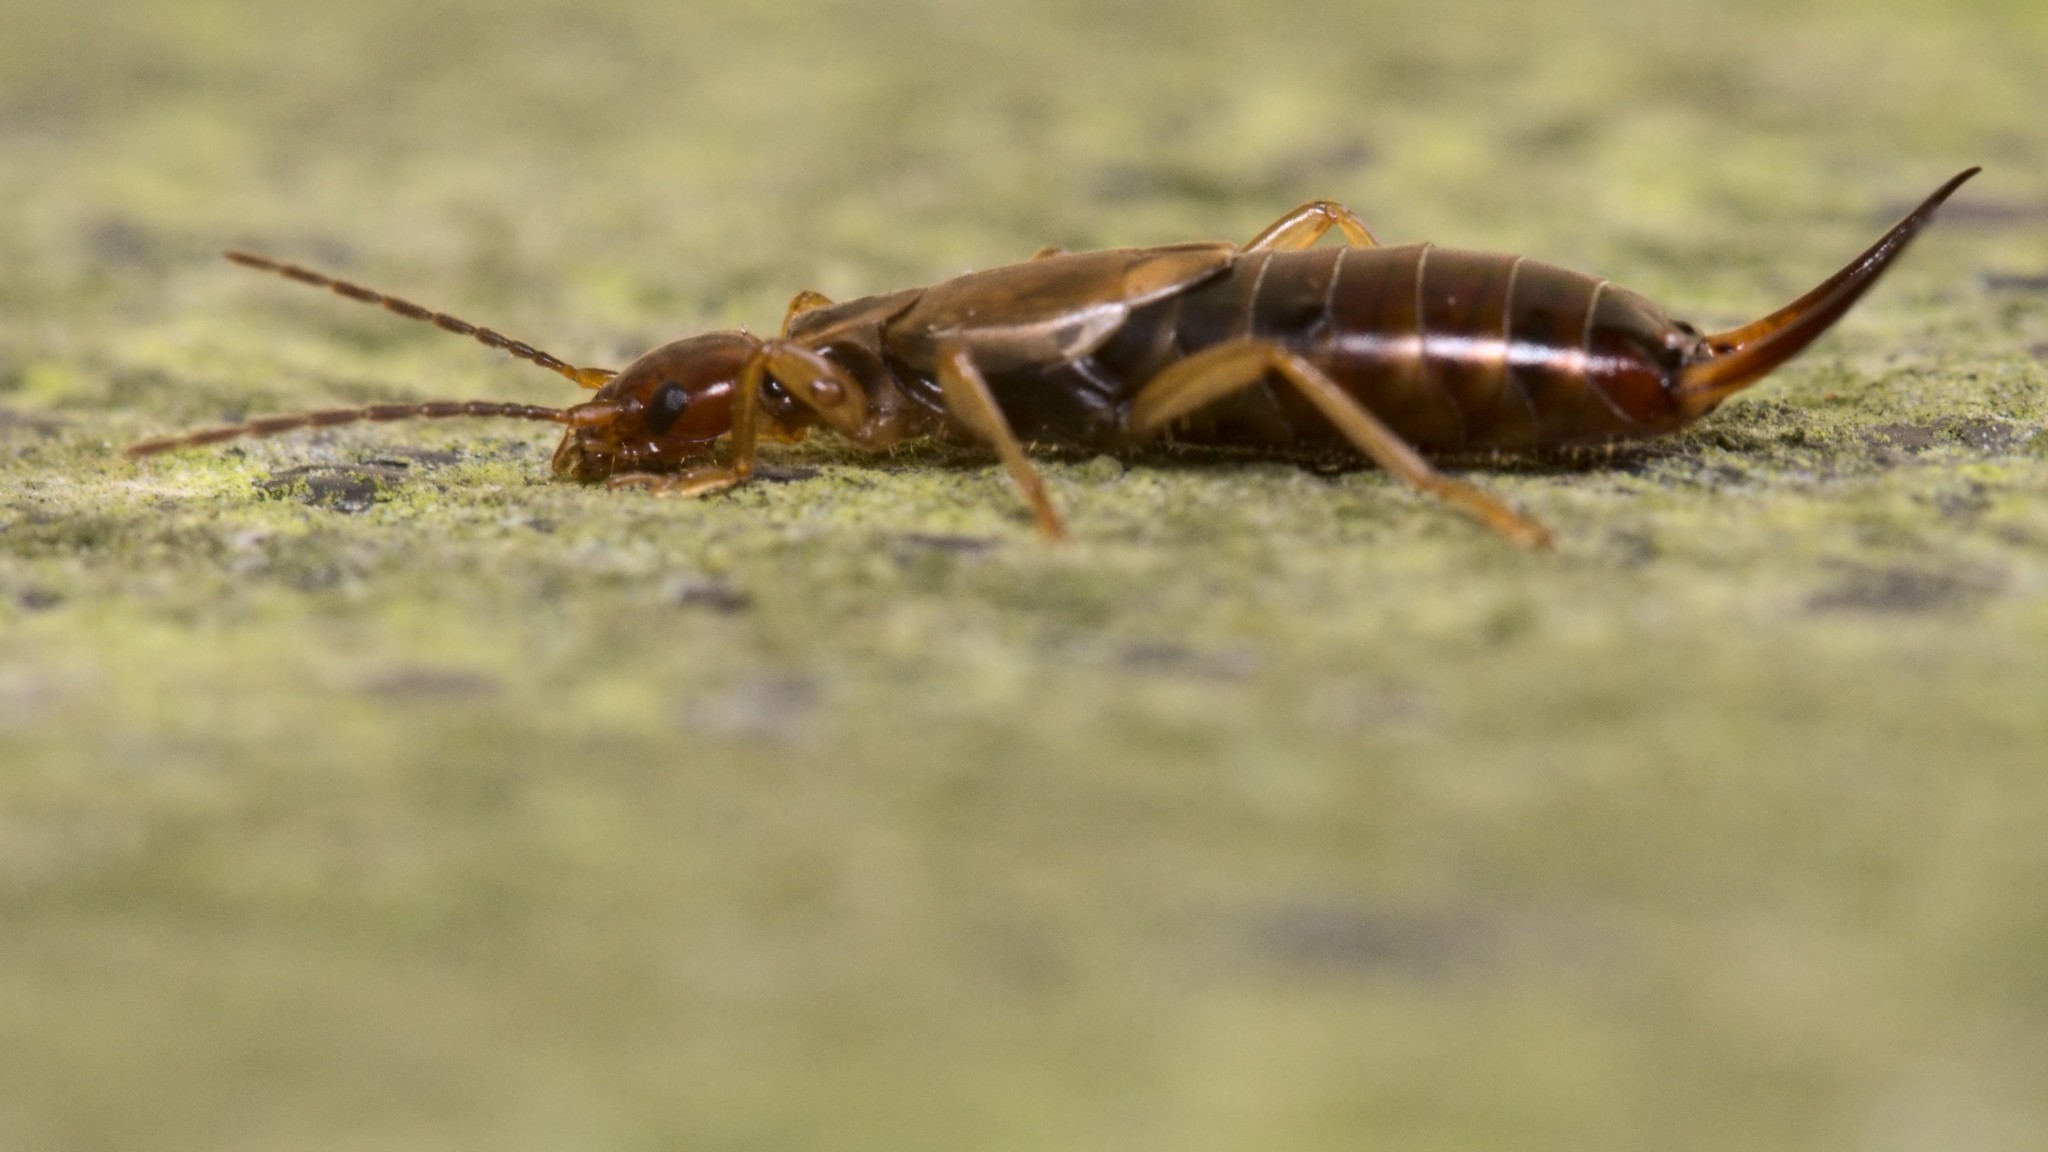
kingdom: Animalia
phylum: Arthropoda
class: Insecta
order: Dermaptera
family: Forficulidae
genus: Forficula
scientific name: Forficula
